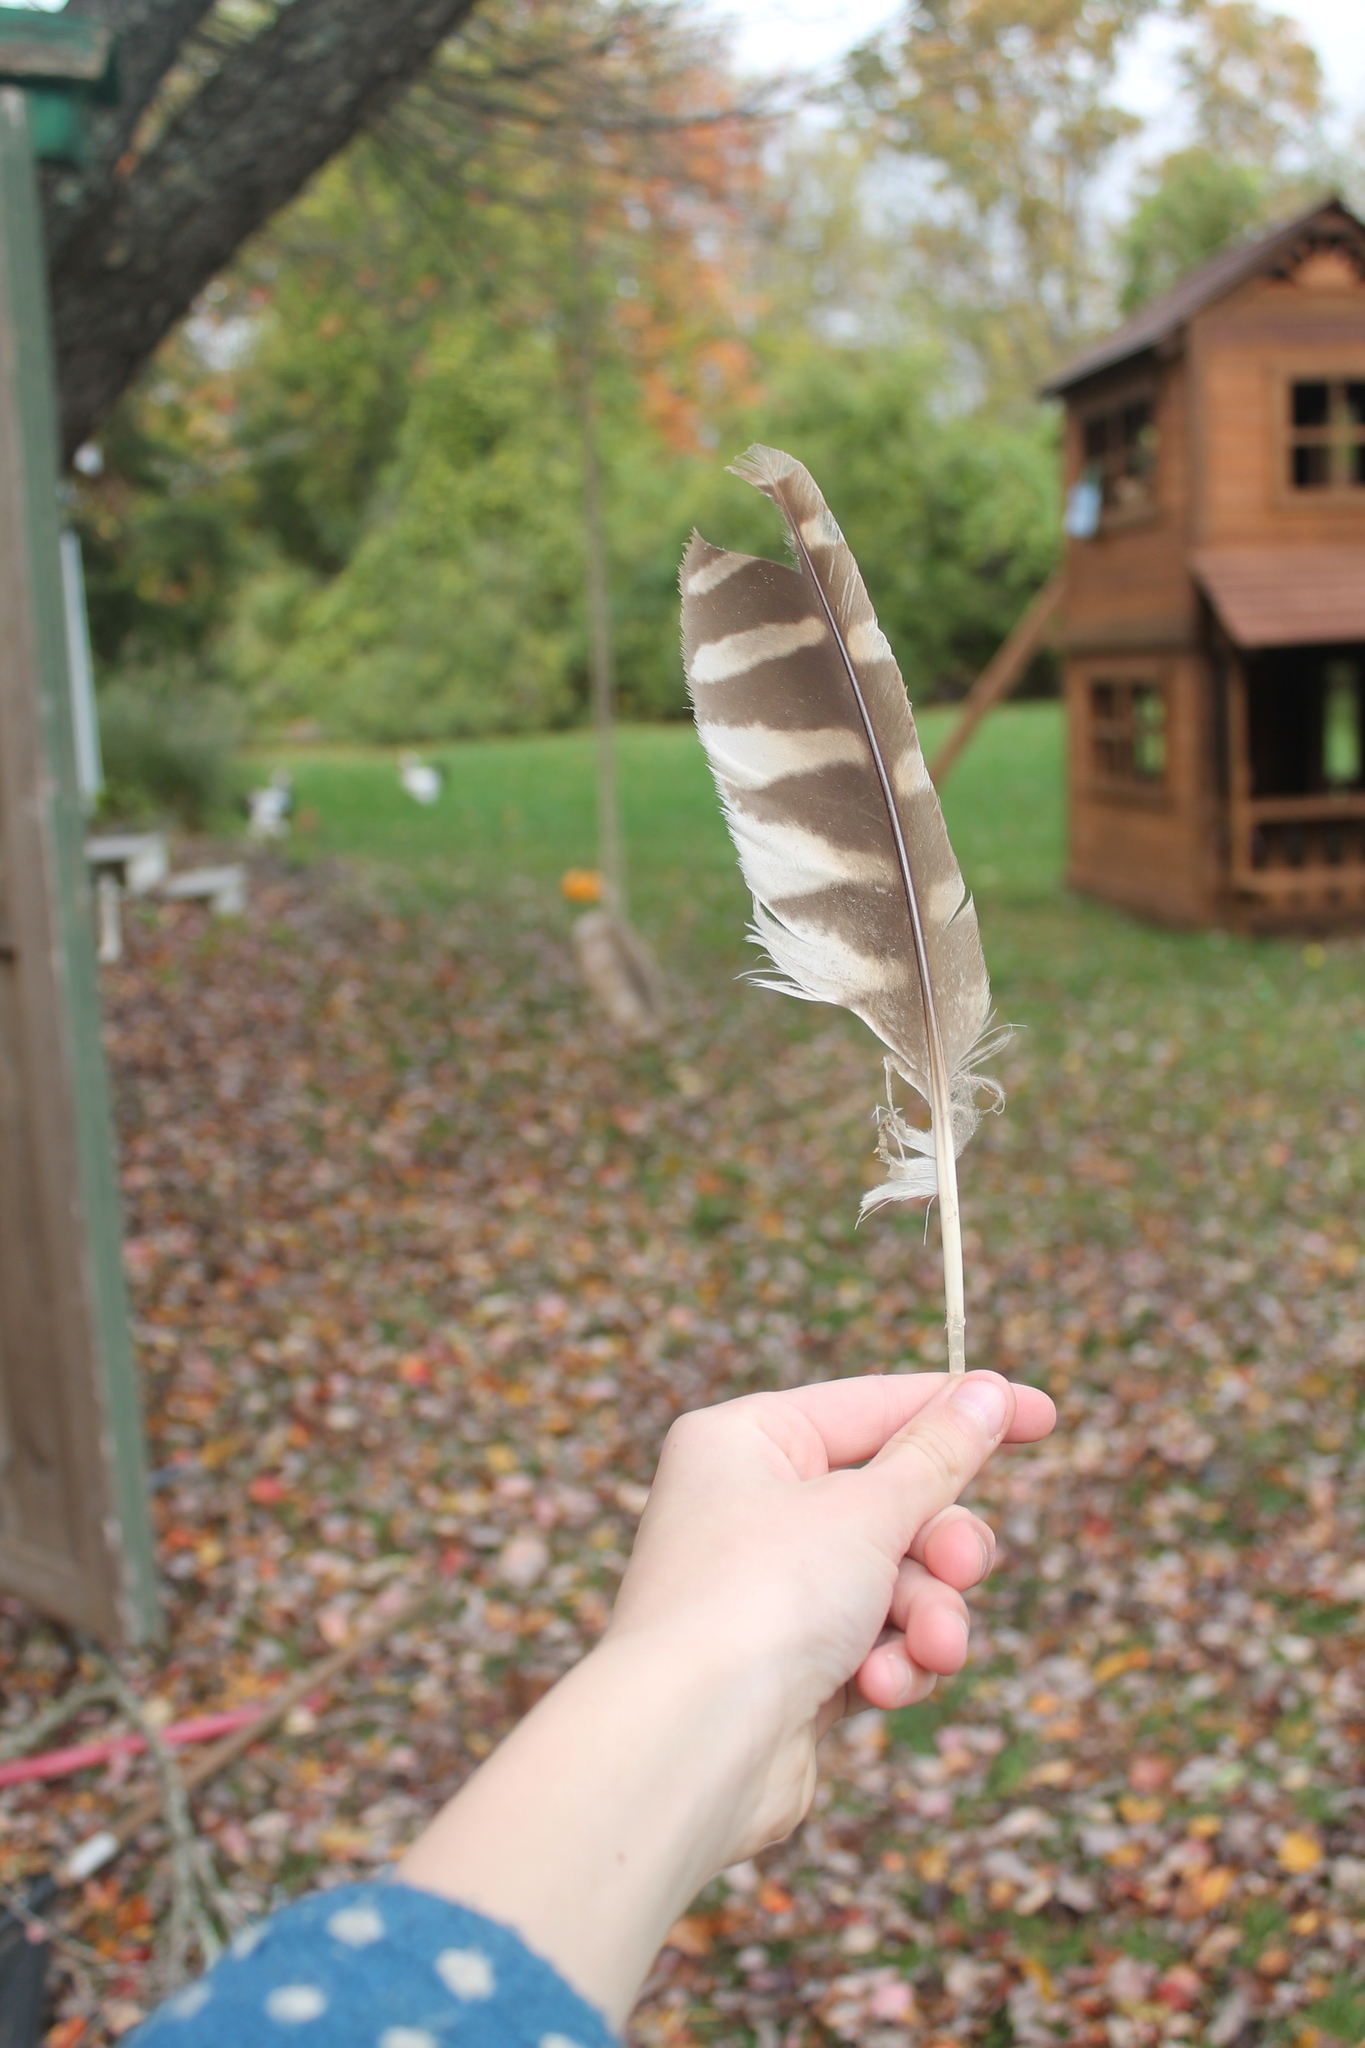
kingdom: Animalia
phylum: Chordata
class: Aves
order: Strigiformes
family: Strigidae
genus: Strix
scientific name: Strix varia
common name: Barred owl
